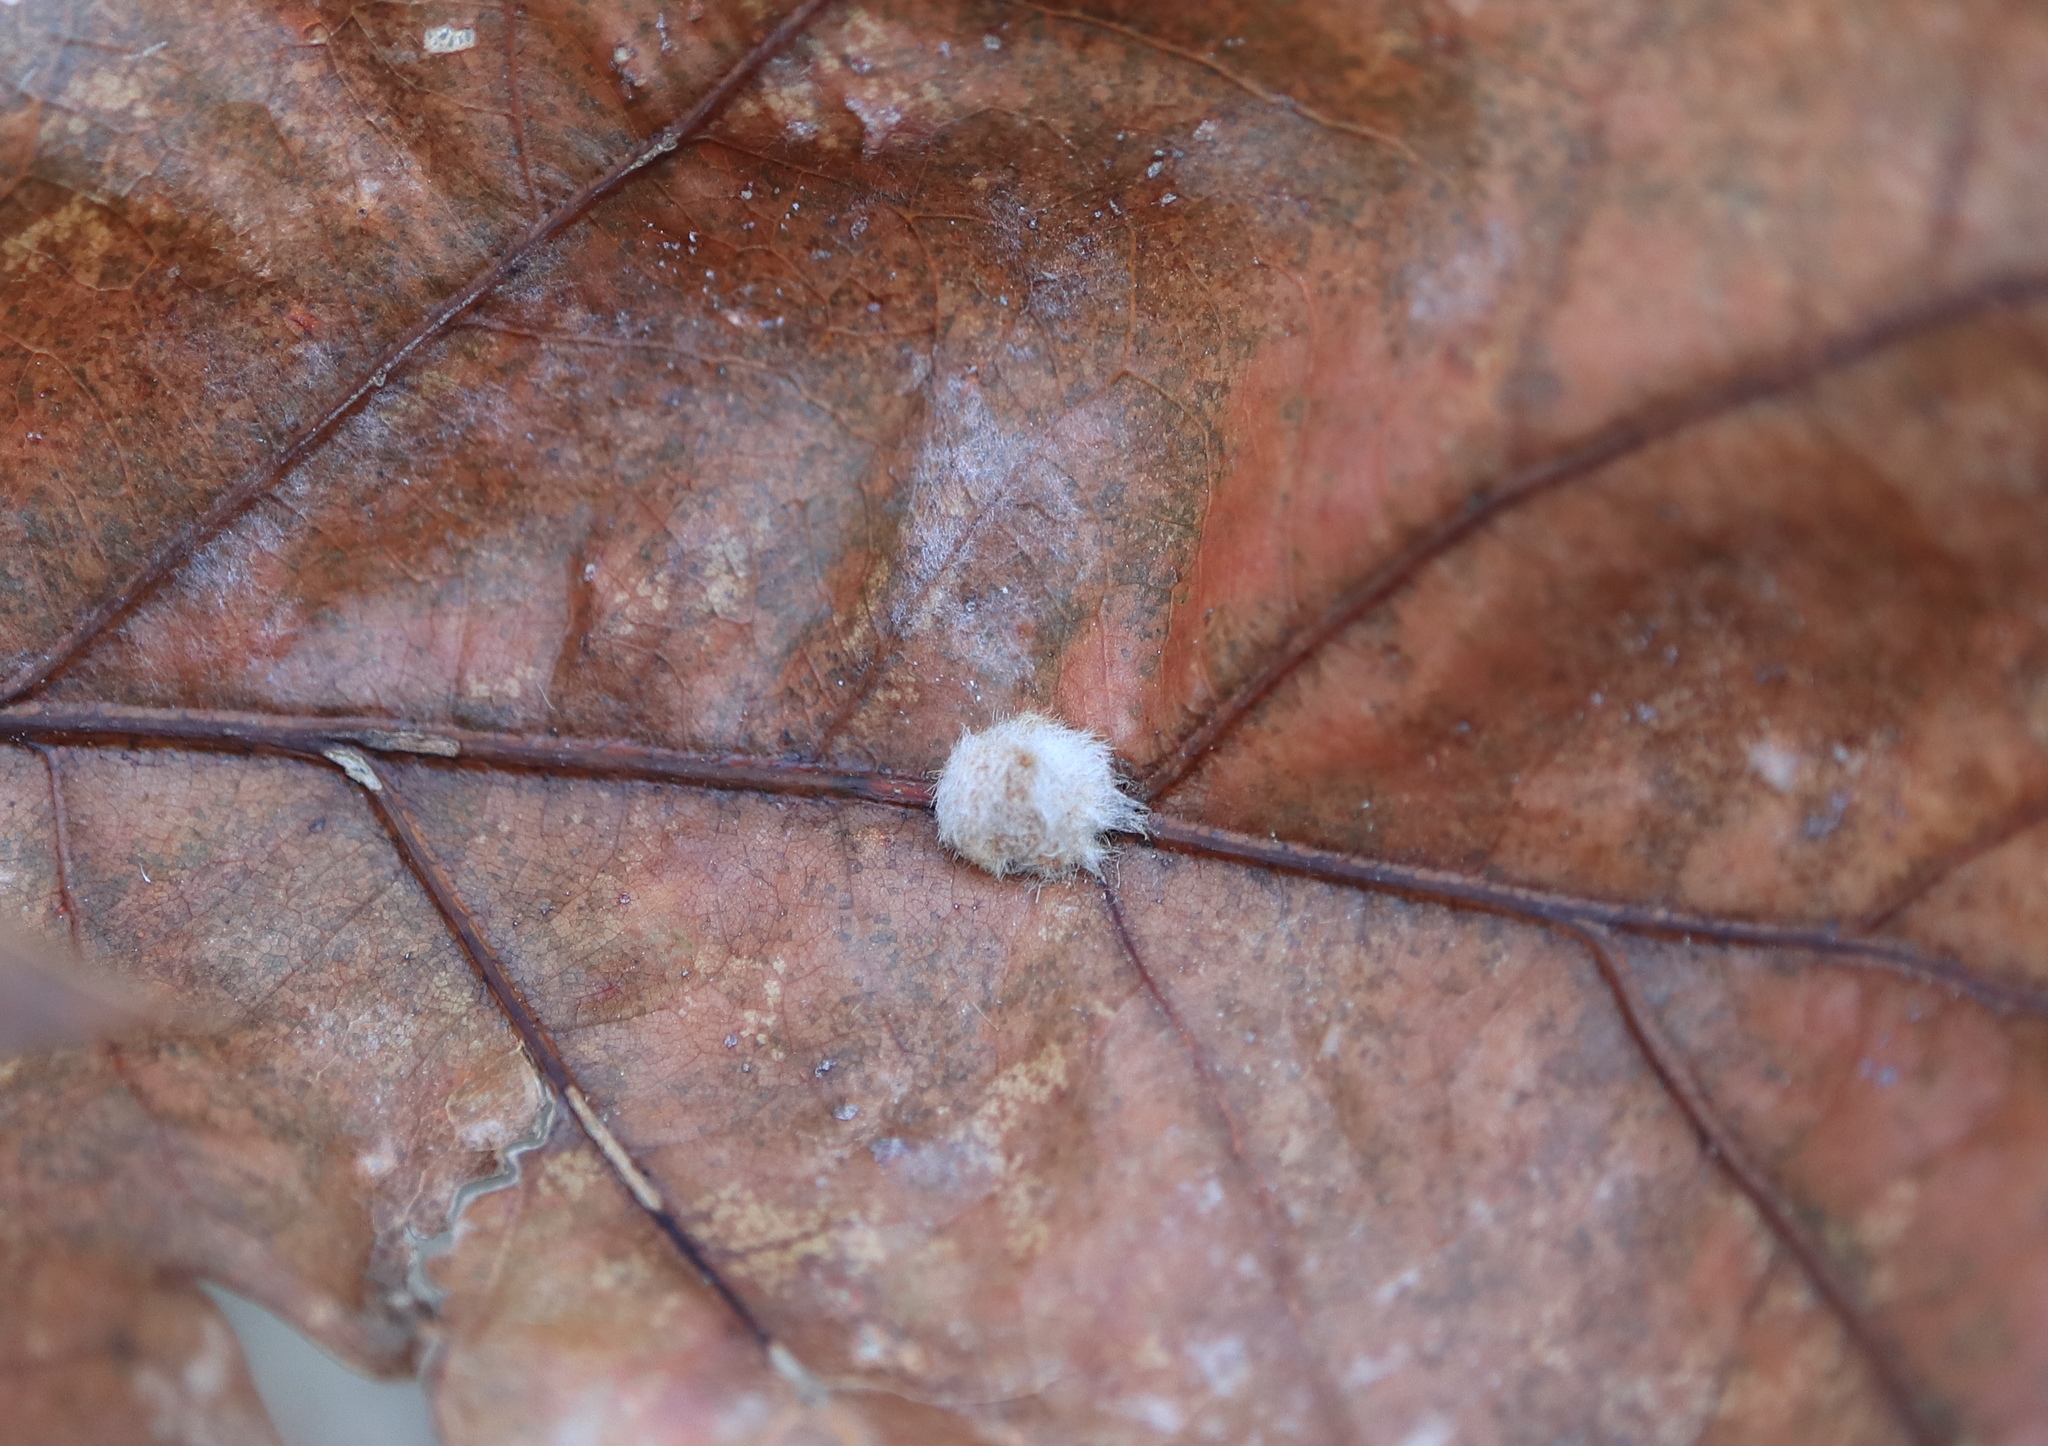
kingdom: Animalia
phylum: Arthropoda
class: Insecta
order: Hymenoptera
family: Cynipidae
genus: Andricus
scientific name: Andricus quercusflocci
